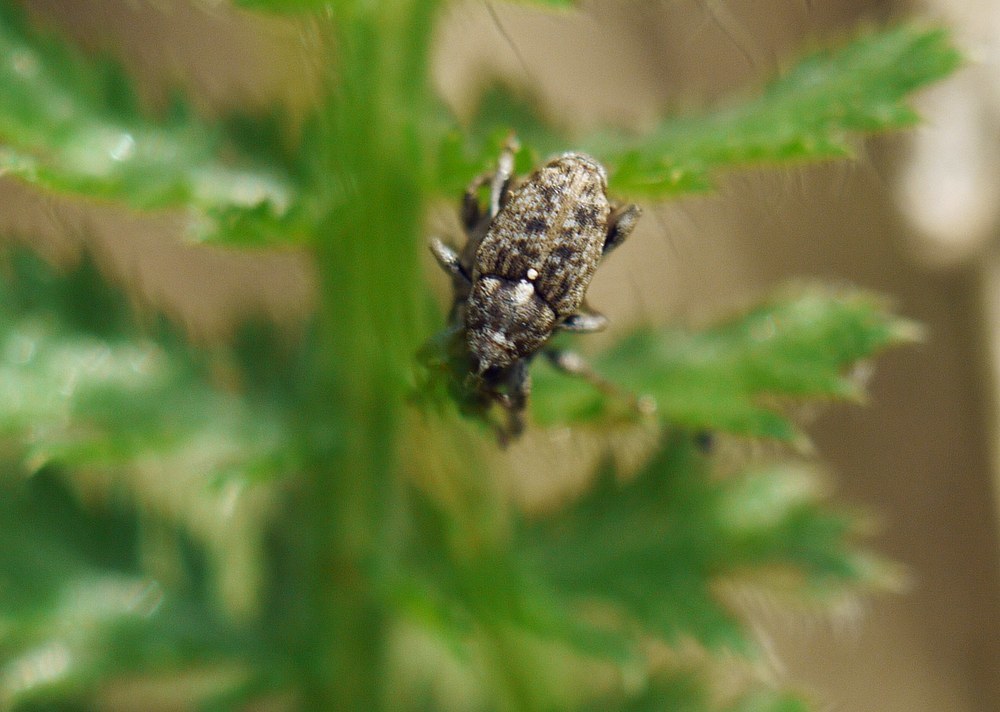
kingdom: Animalia
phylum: Arthropoda
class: Insecta
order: Coleoptera
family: Curculionidae
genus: Poecilma
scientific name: Poecilma
